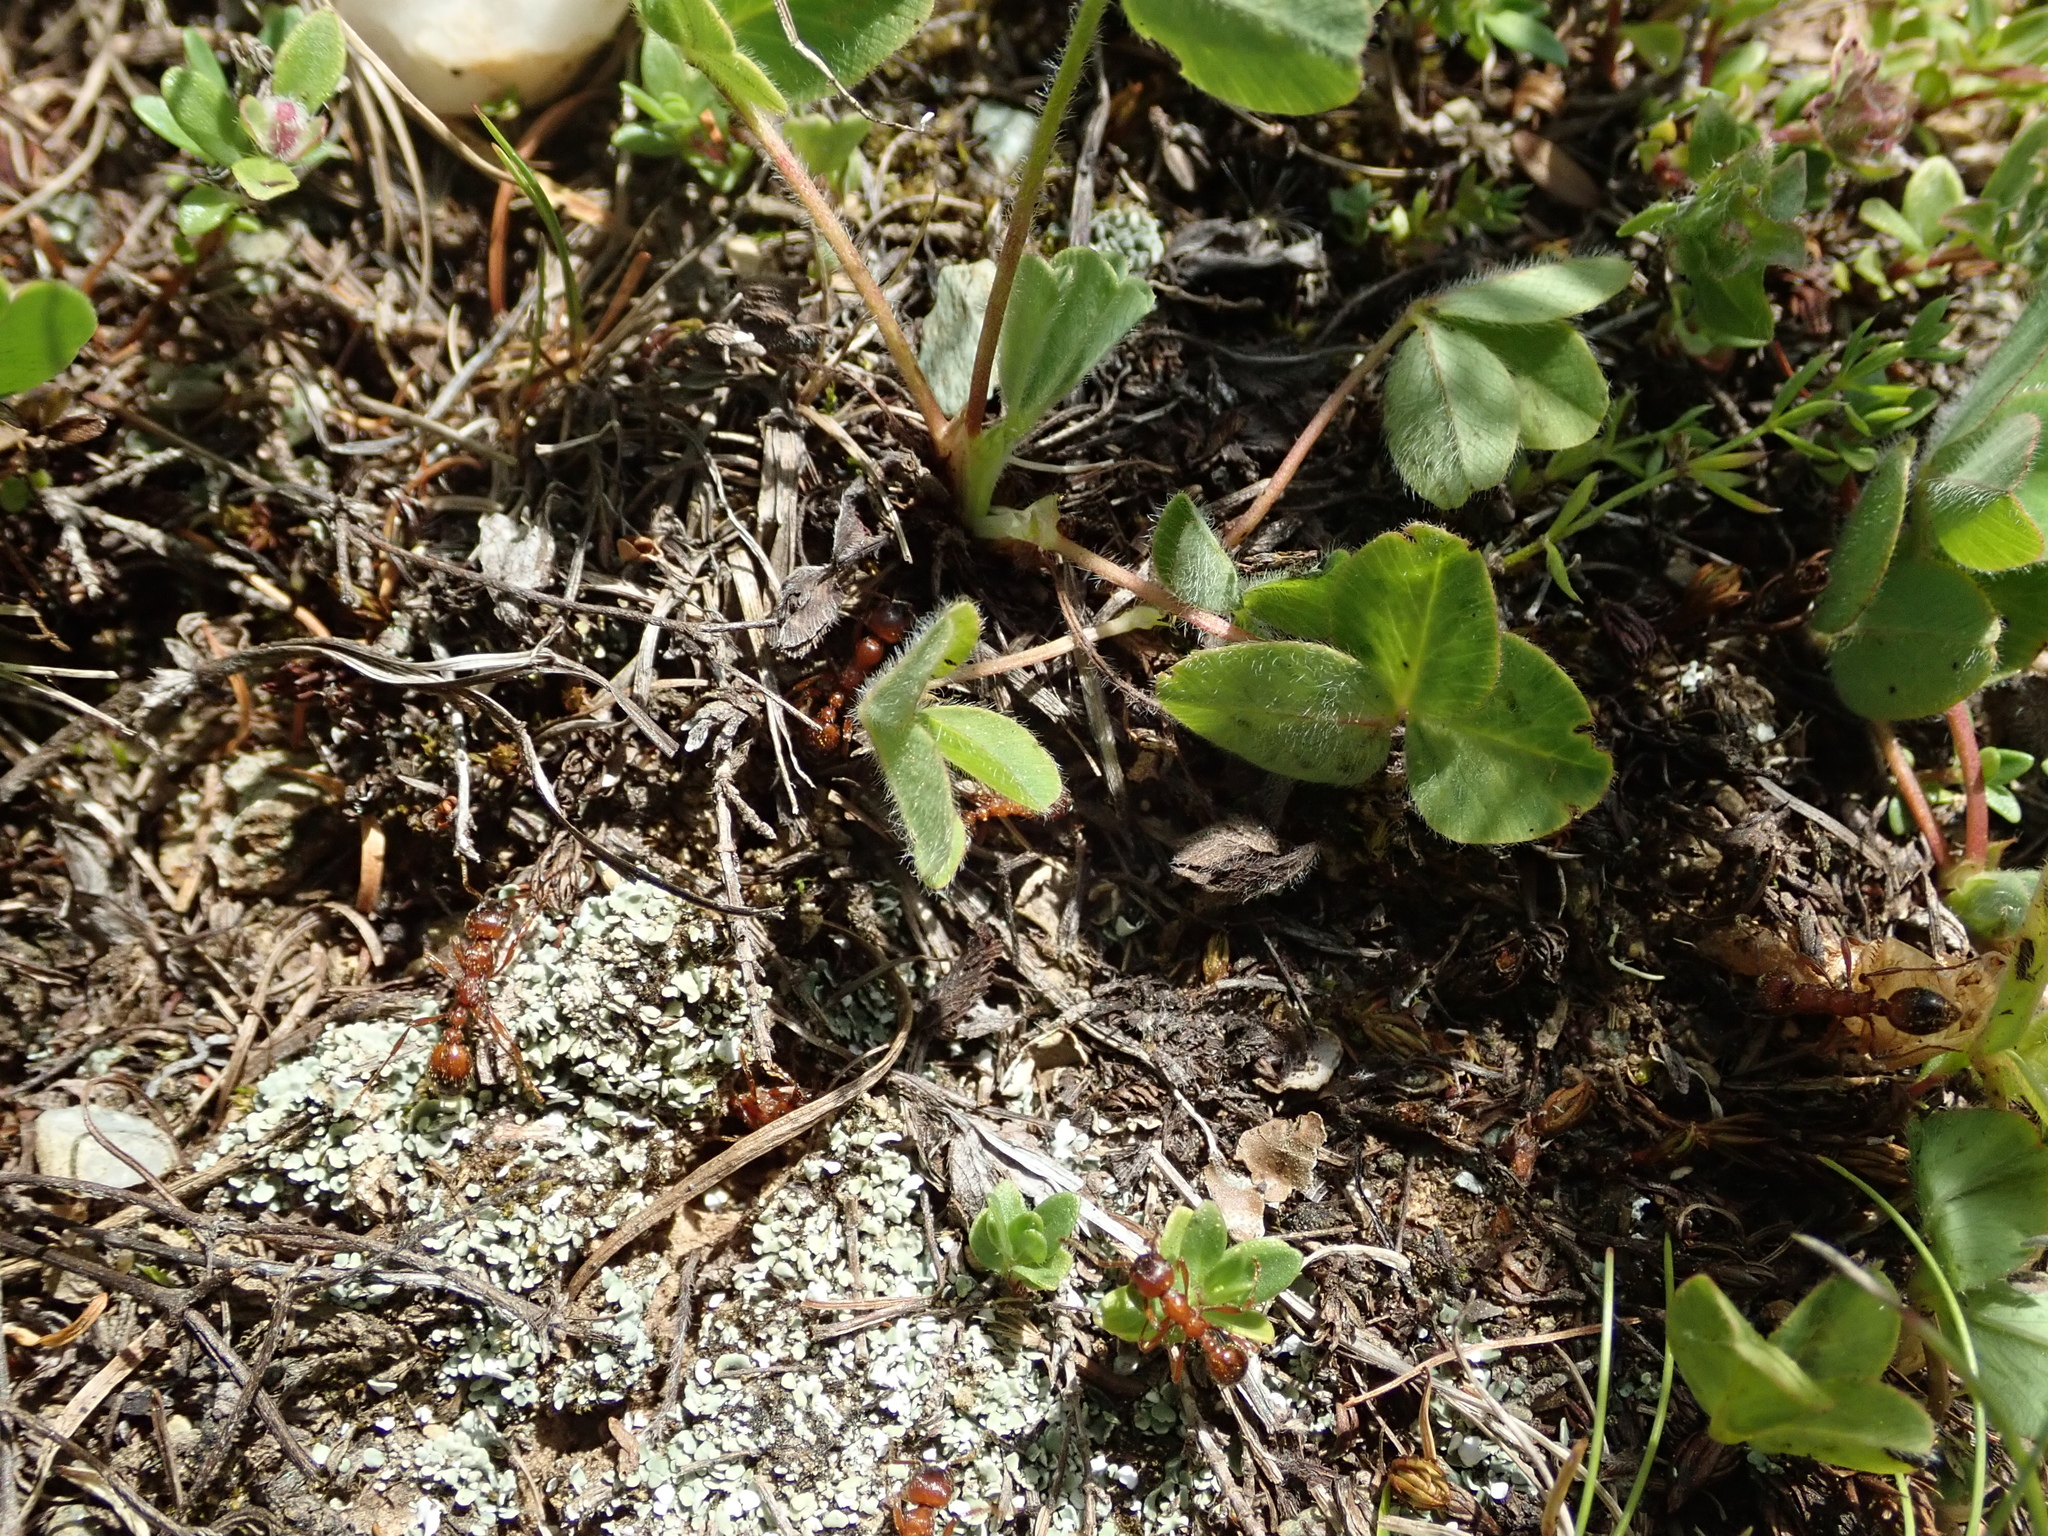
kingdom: Animalia
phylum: Arthropoda
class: Insecta
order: Hymenoptera
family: Formicidae
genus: Manica
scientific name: Manica rubida
